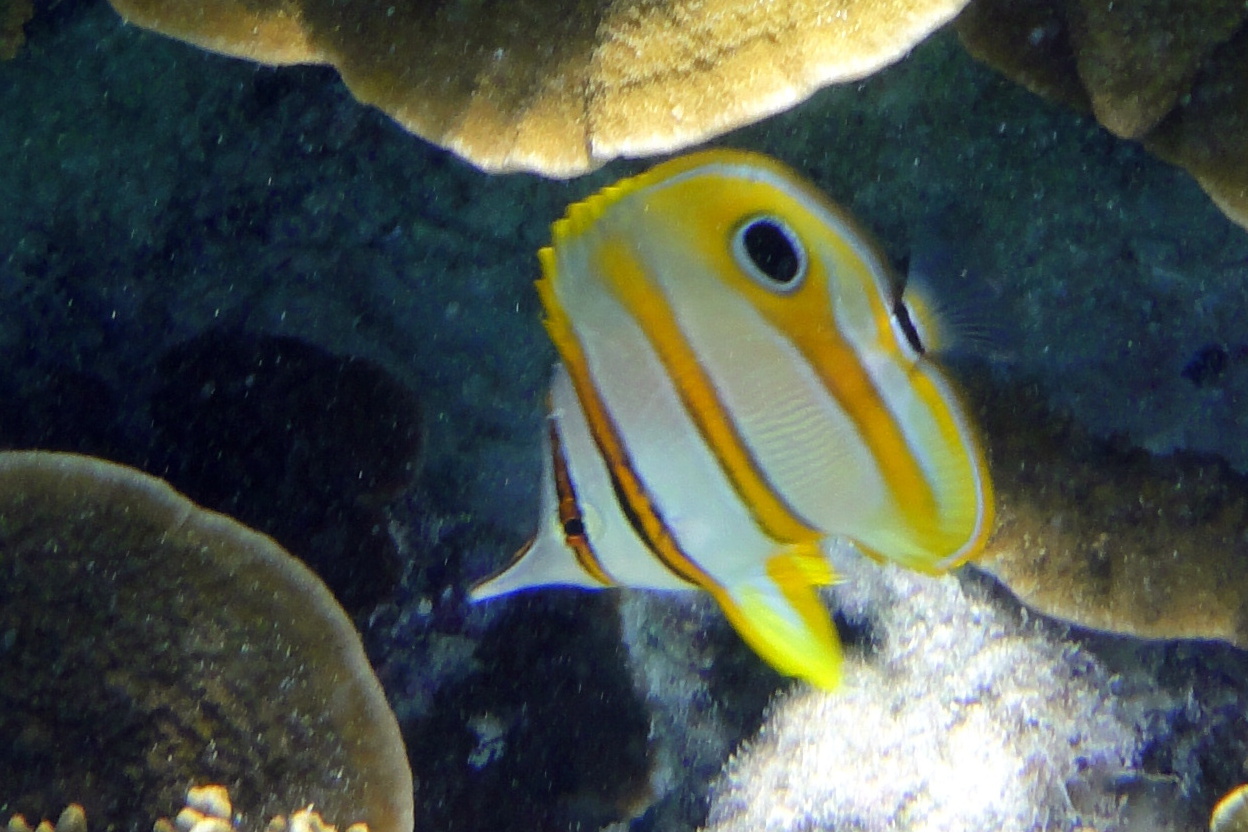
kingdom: Animalia
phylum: Chordata
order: Perciformes
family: Chaetodontidae
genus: Chelmon
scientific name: Chelmon rostratus
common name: Beaked butterflyfish
